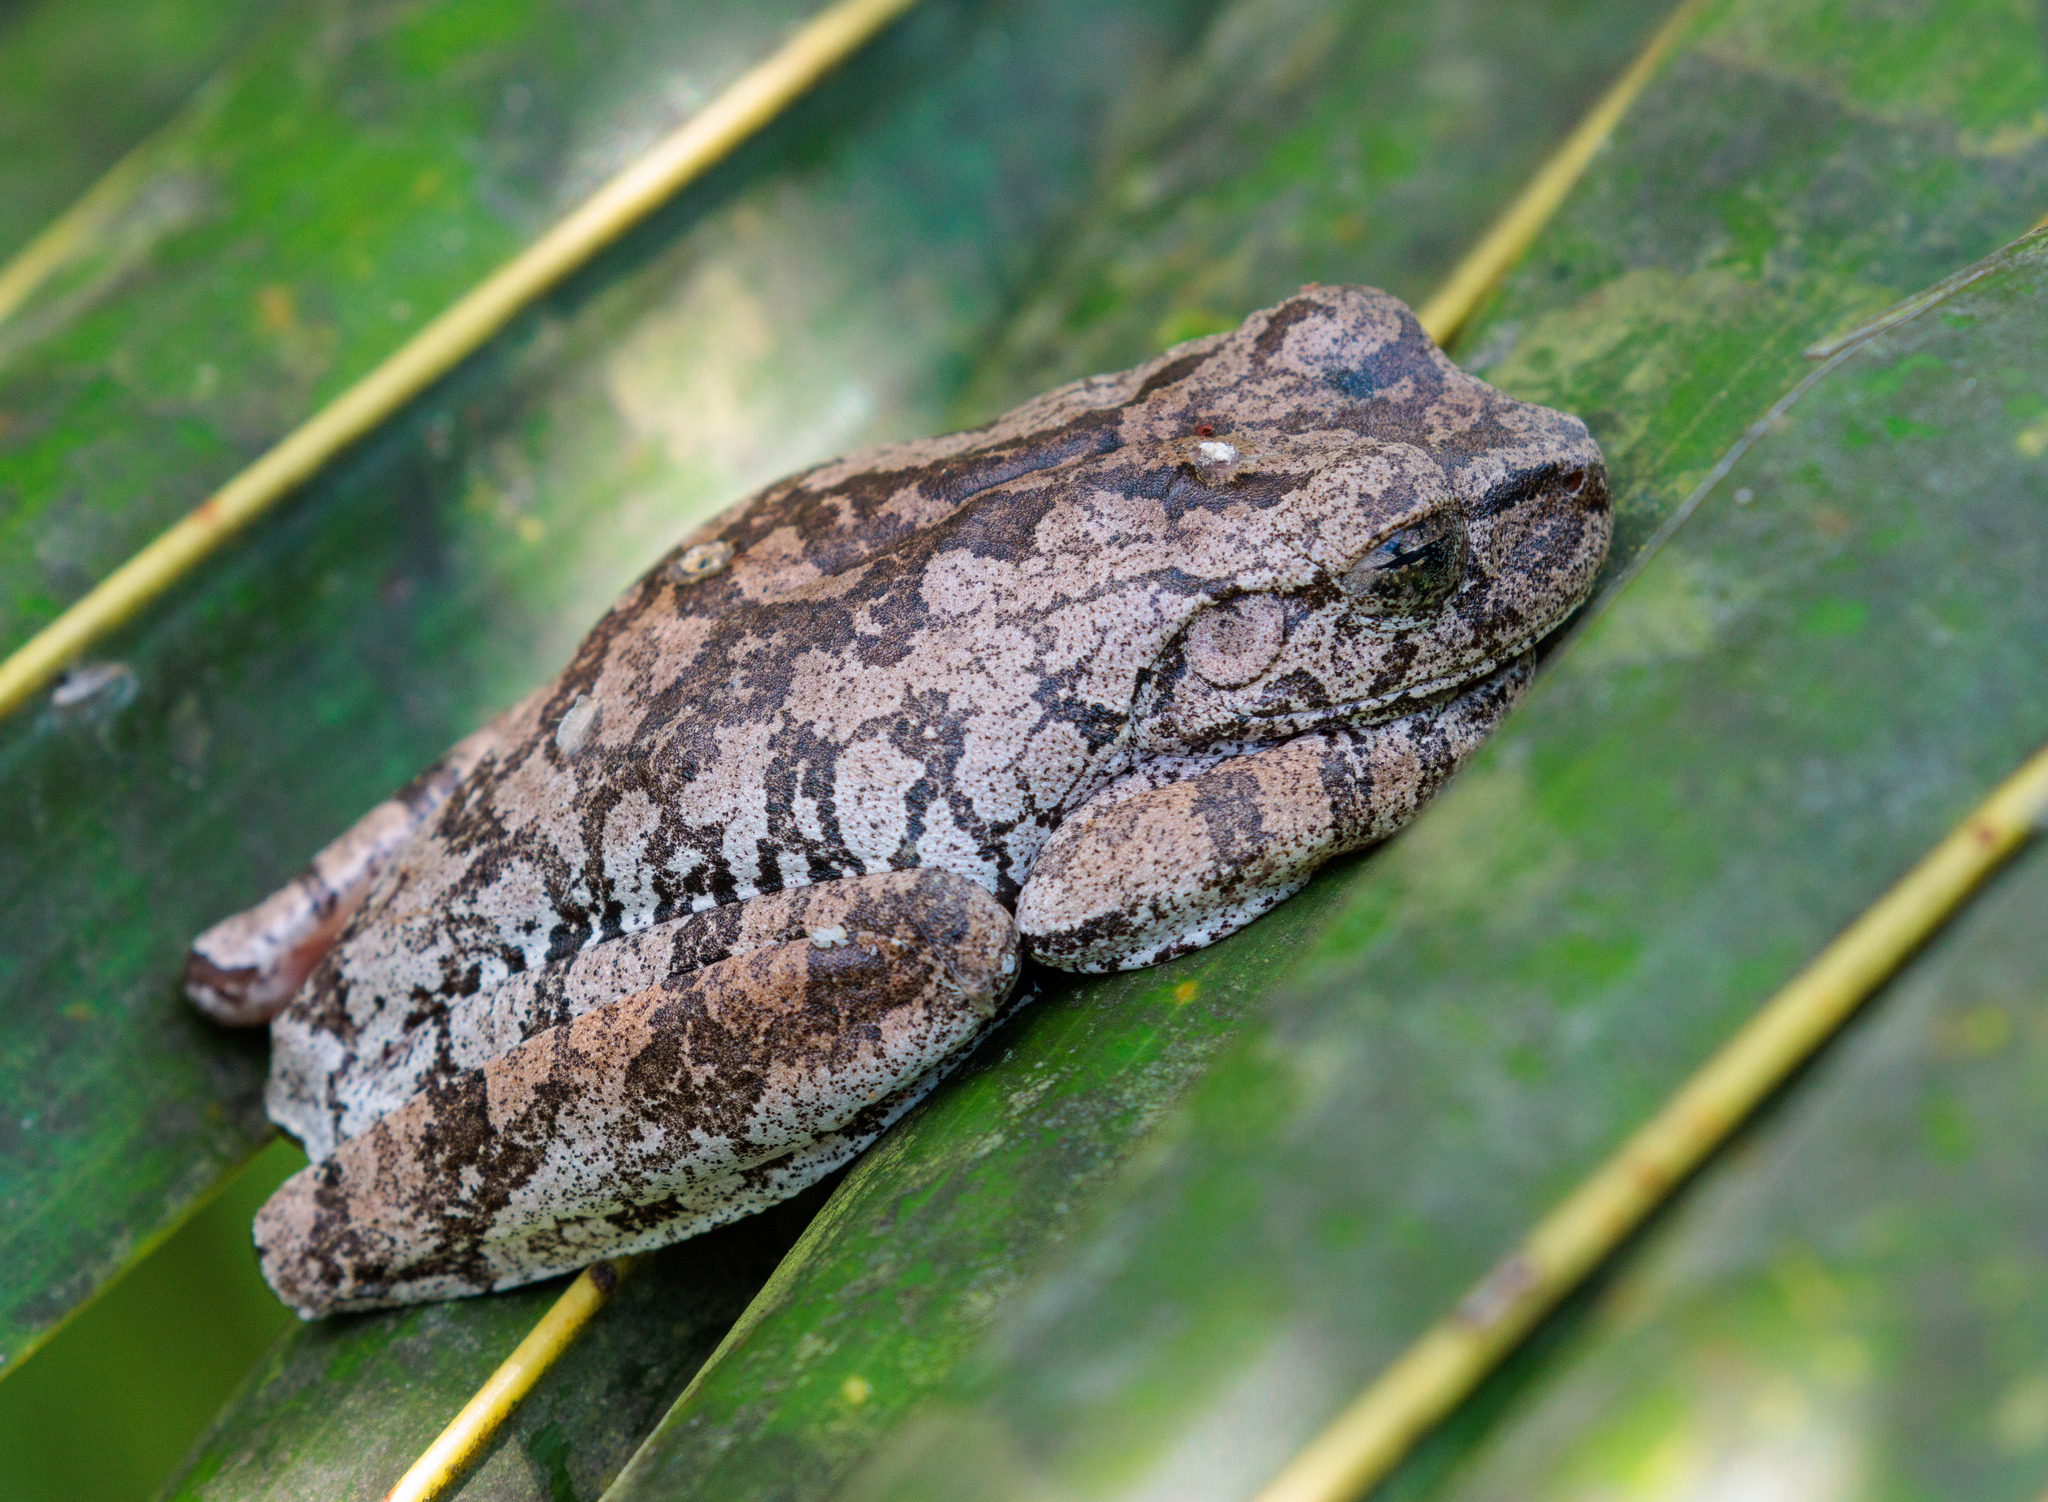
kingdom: Animalia
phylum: Chordata
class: Amphibia
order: Anura
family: Hylidae
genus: Boana
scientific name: Boana crepitans
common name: Emerald-eyed treefrog
